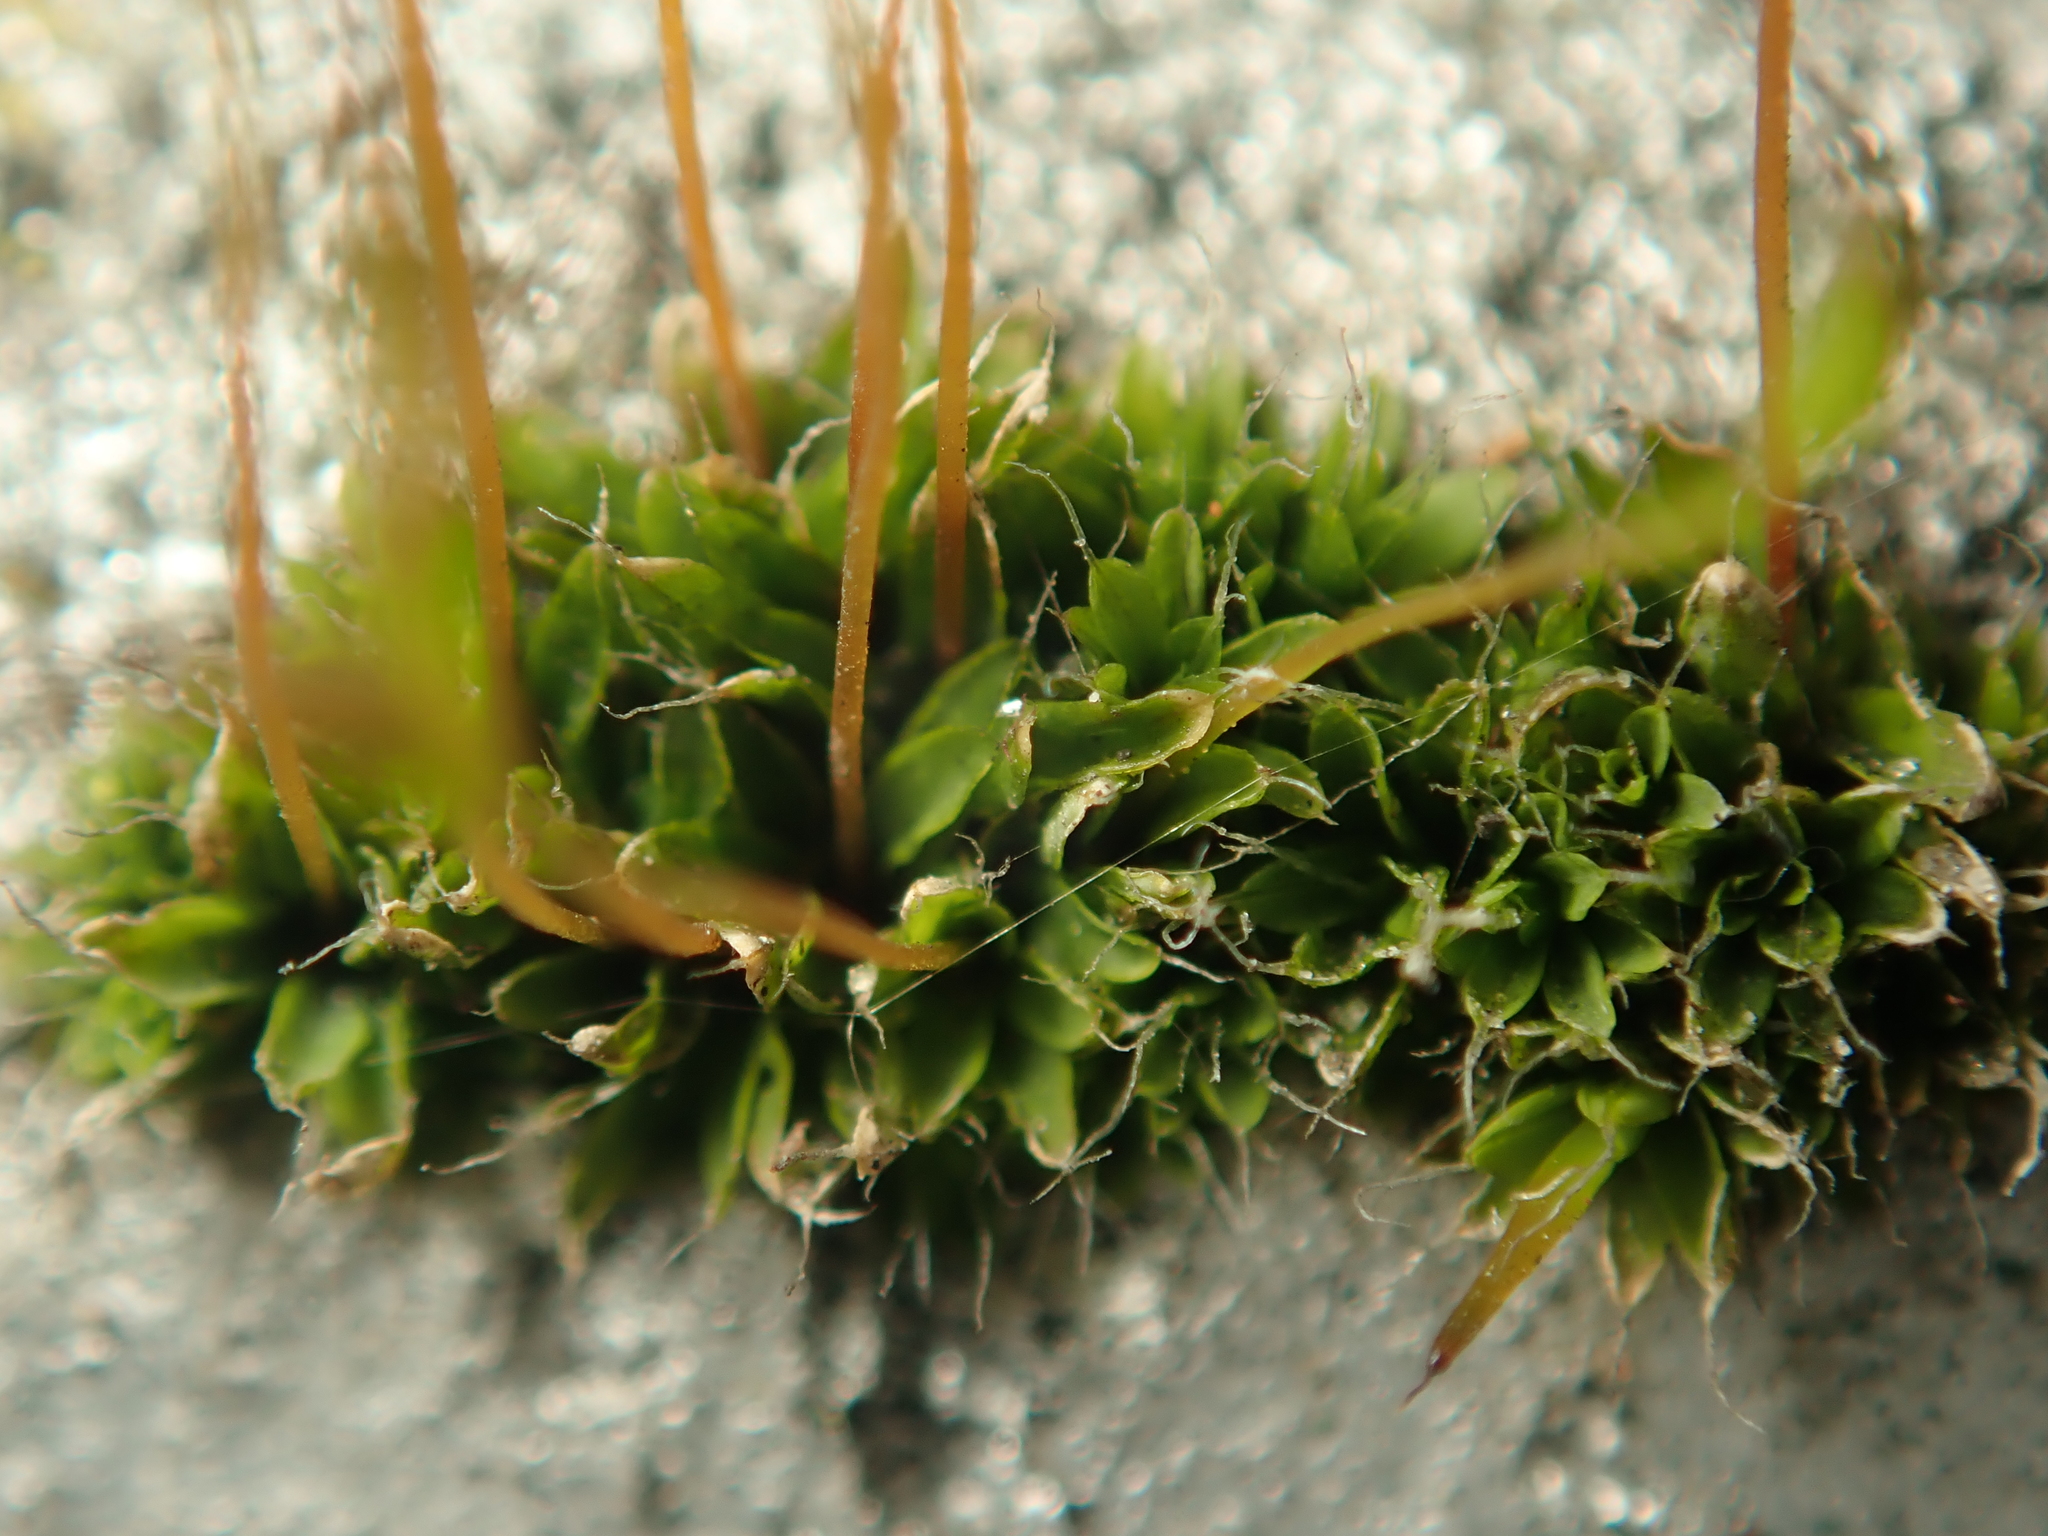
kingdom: Plantae
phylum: Bryophyta
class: Bryopsida
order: Pottiales
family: Pottiaceae
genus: Tortula
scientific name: Tortula muralis
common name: Wall screw-moss
